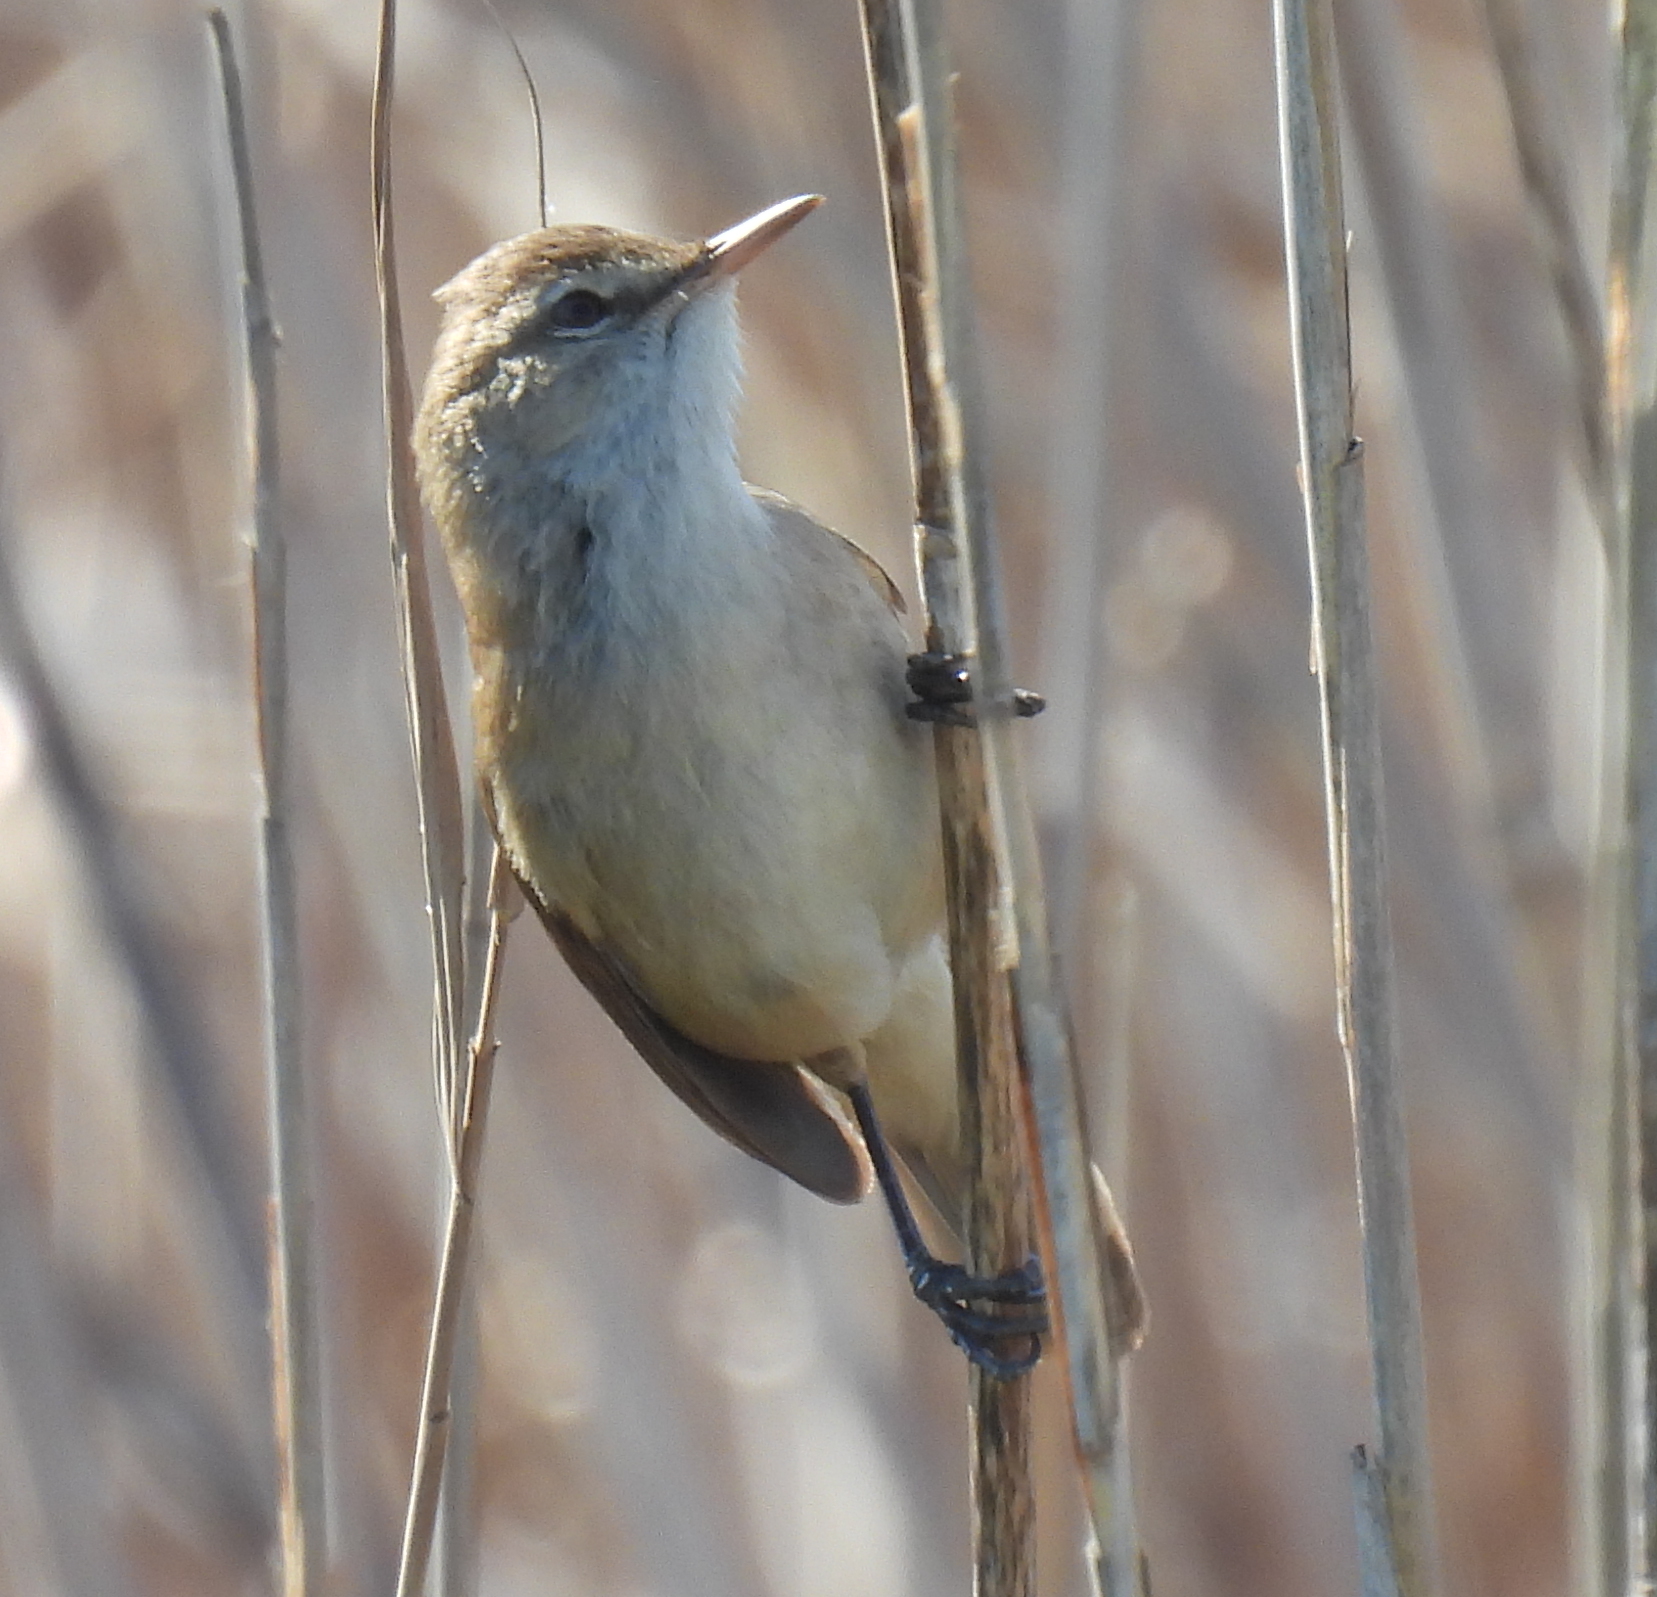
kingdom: Animalia
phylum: Chordata
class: Aves
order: Passeriformes
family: Acrocephalidae
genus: Acrocephalus
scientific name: Acrocephalus gracilirostris
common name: Lesser swamp warbler
